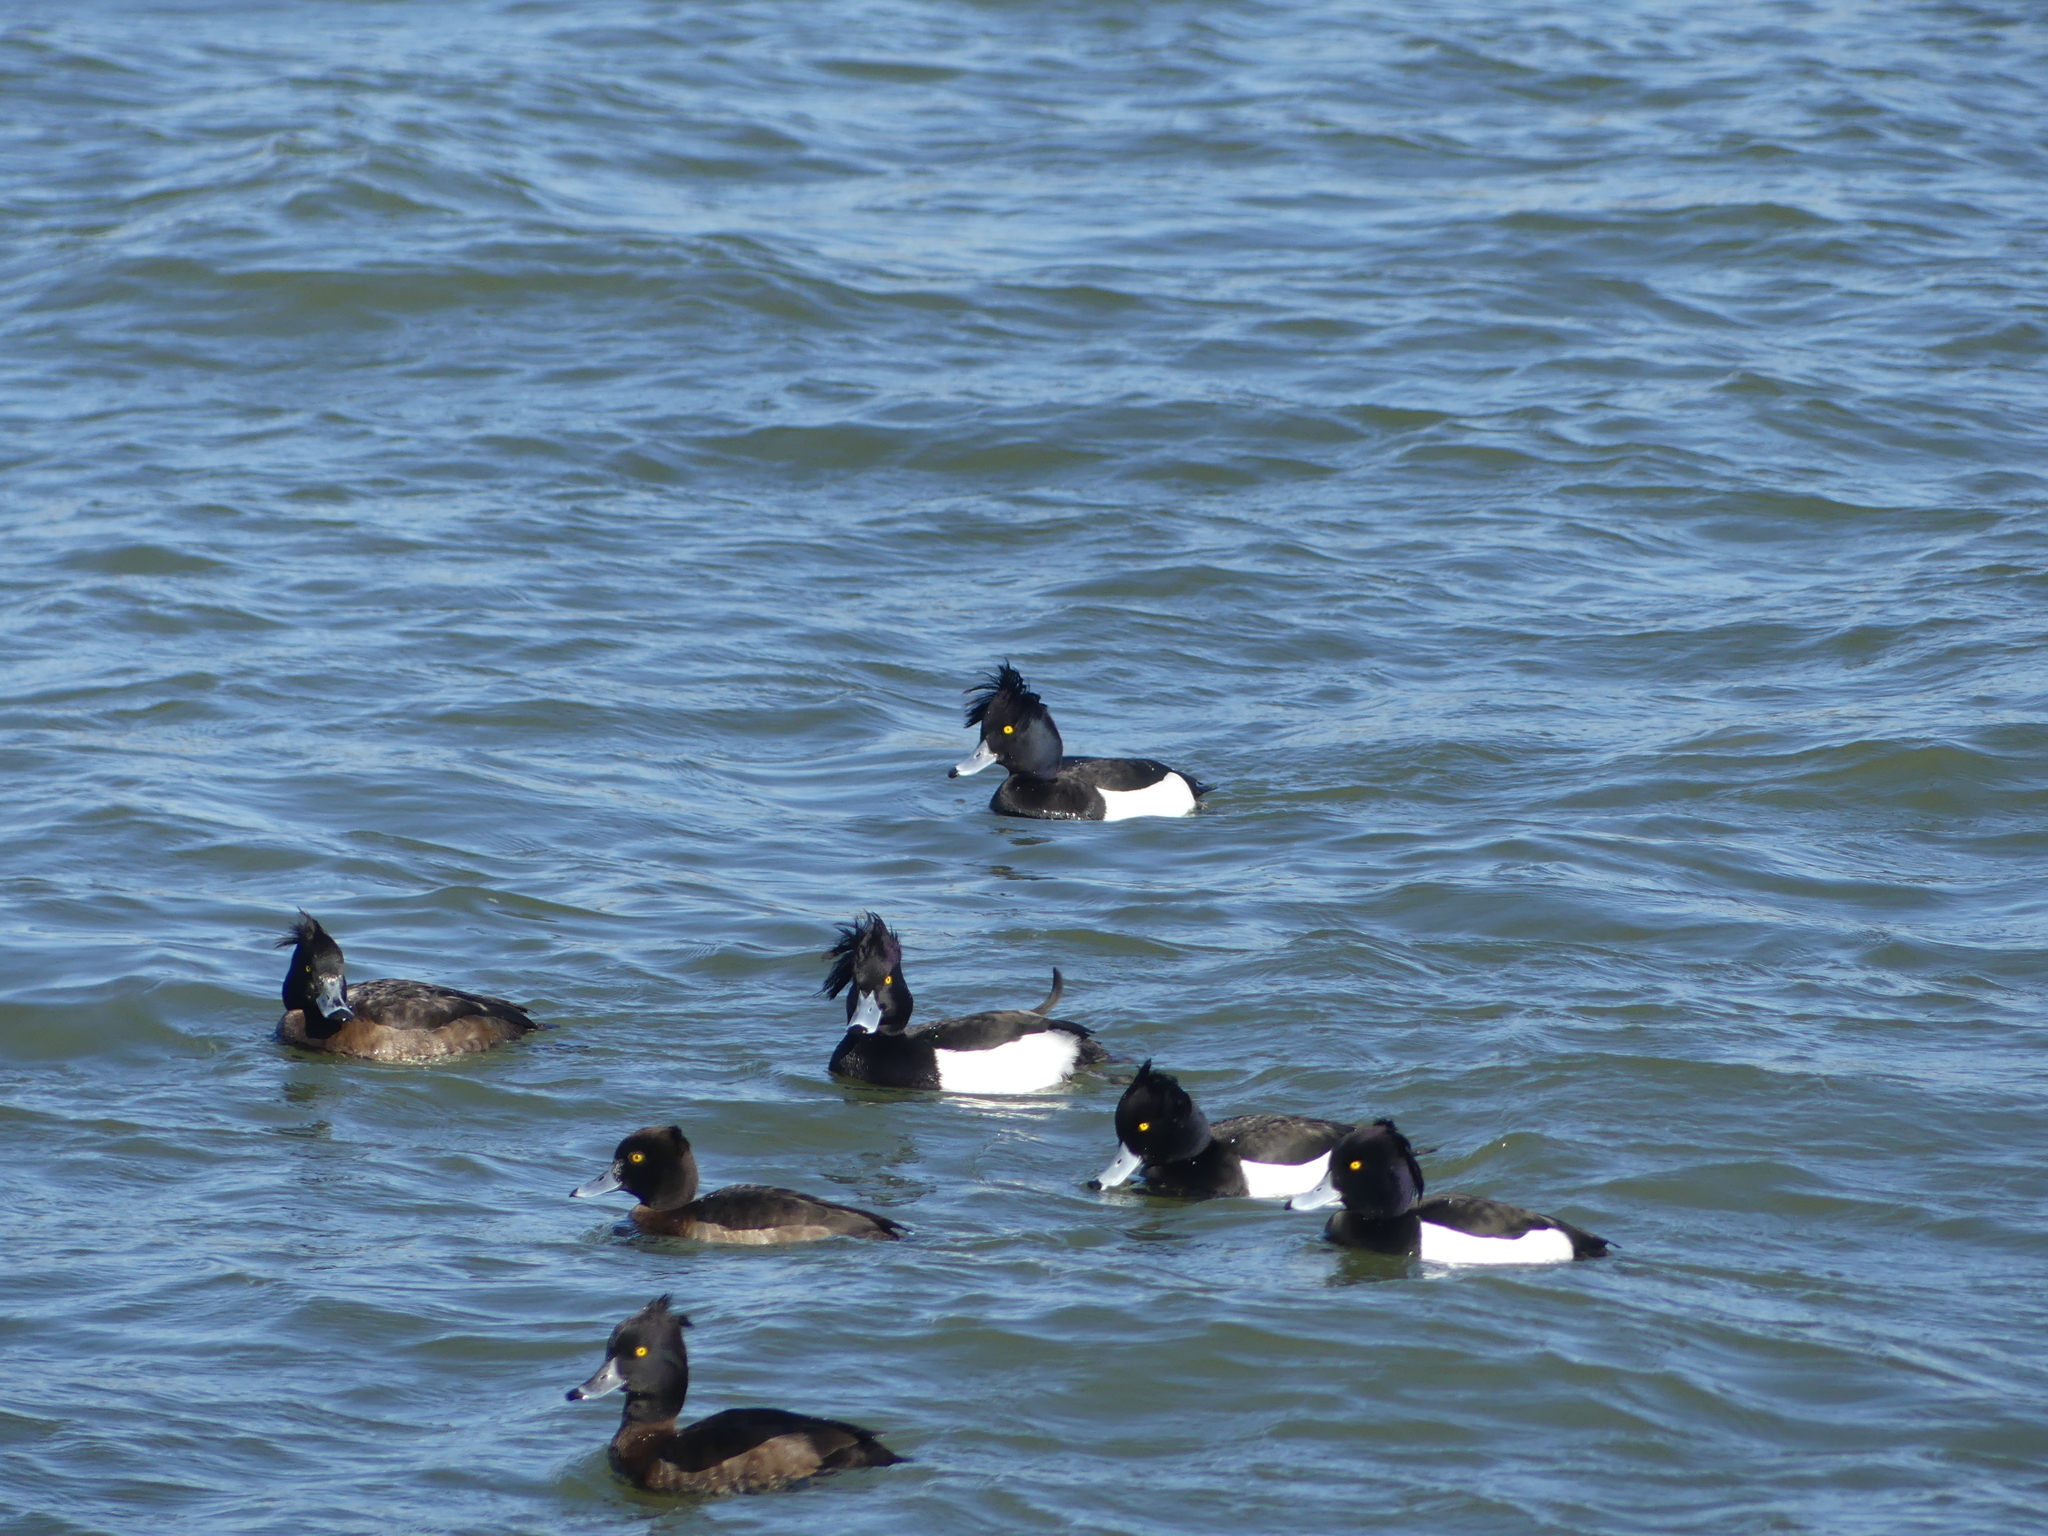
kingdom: Animalia
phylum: Chordata
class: Aves
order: Anseriformes
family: Anatidae
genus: Aythya
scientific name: Aythya fuligula
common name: Tufted duck
